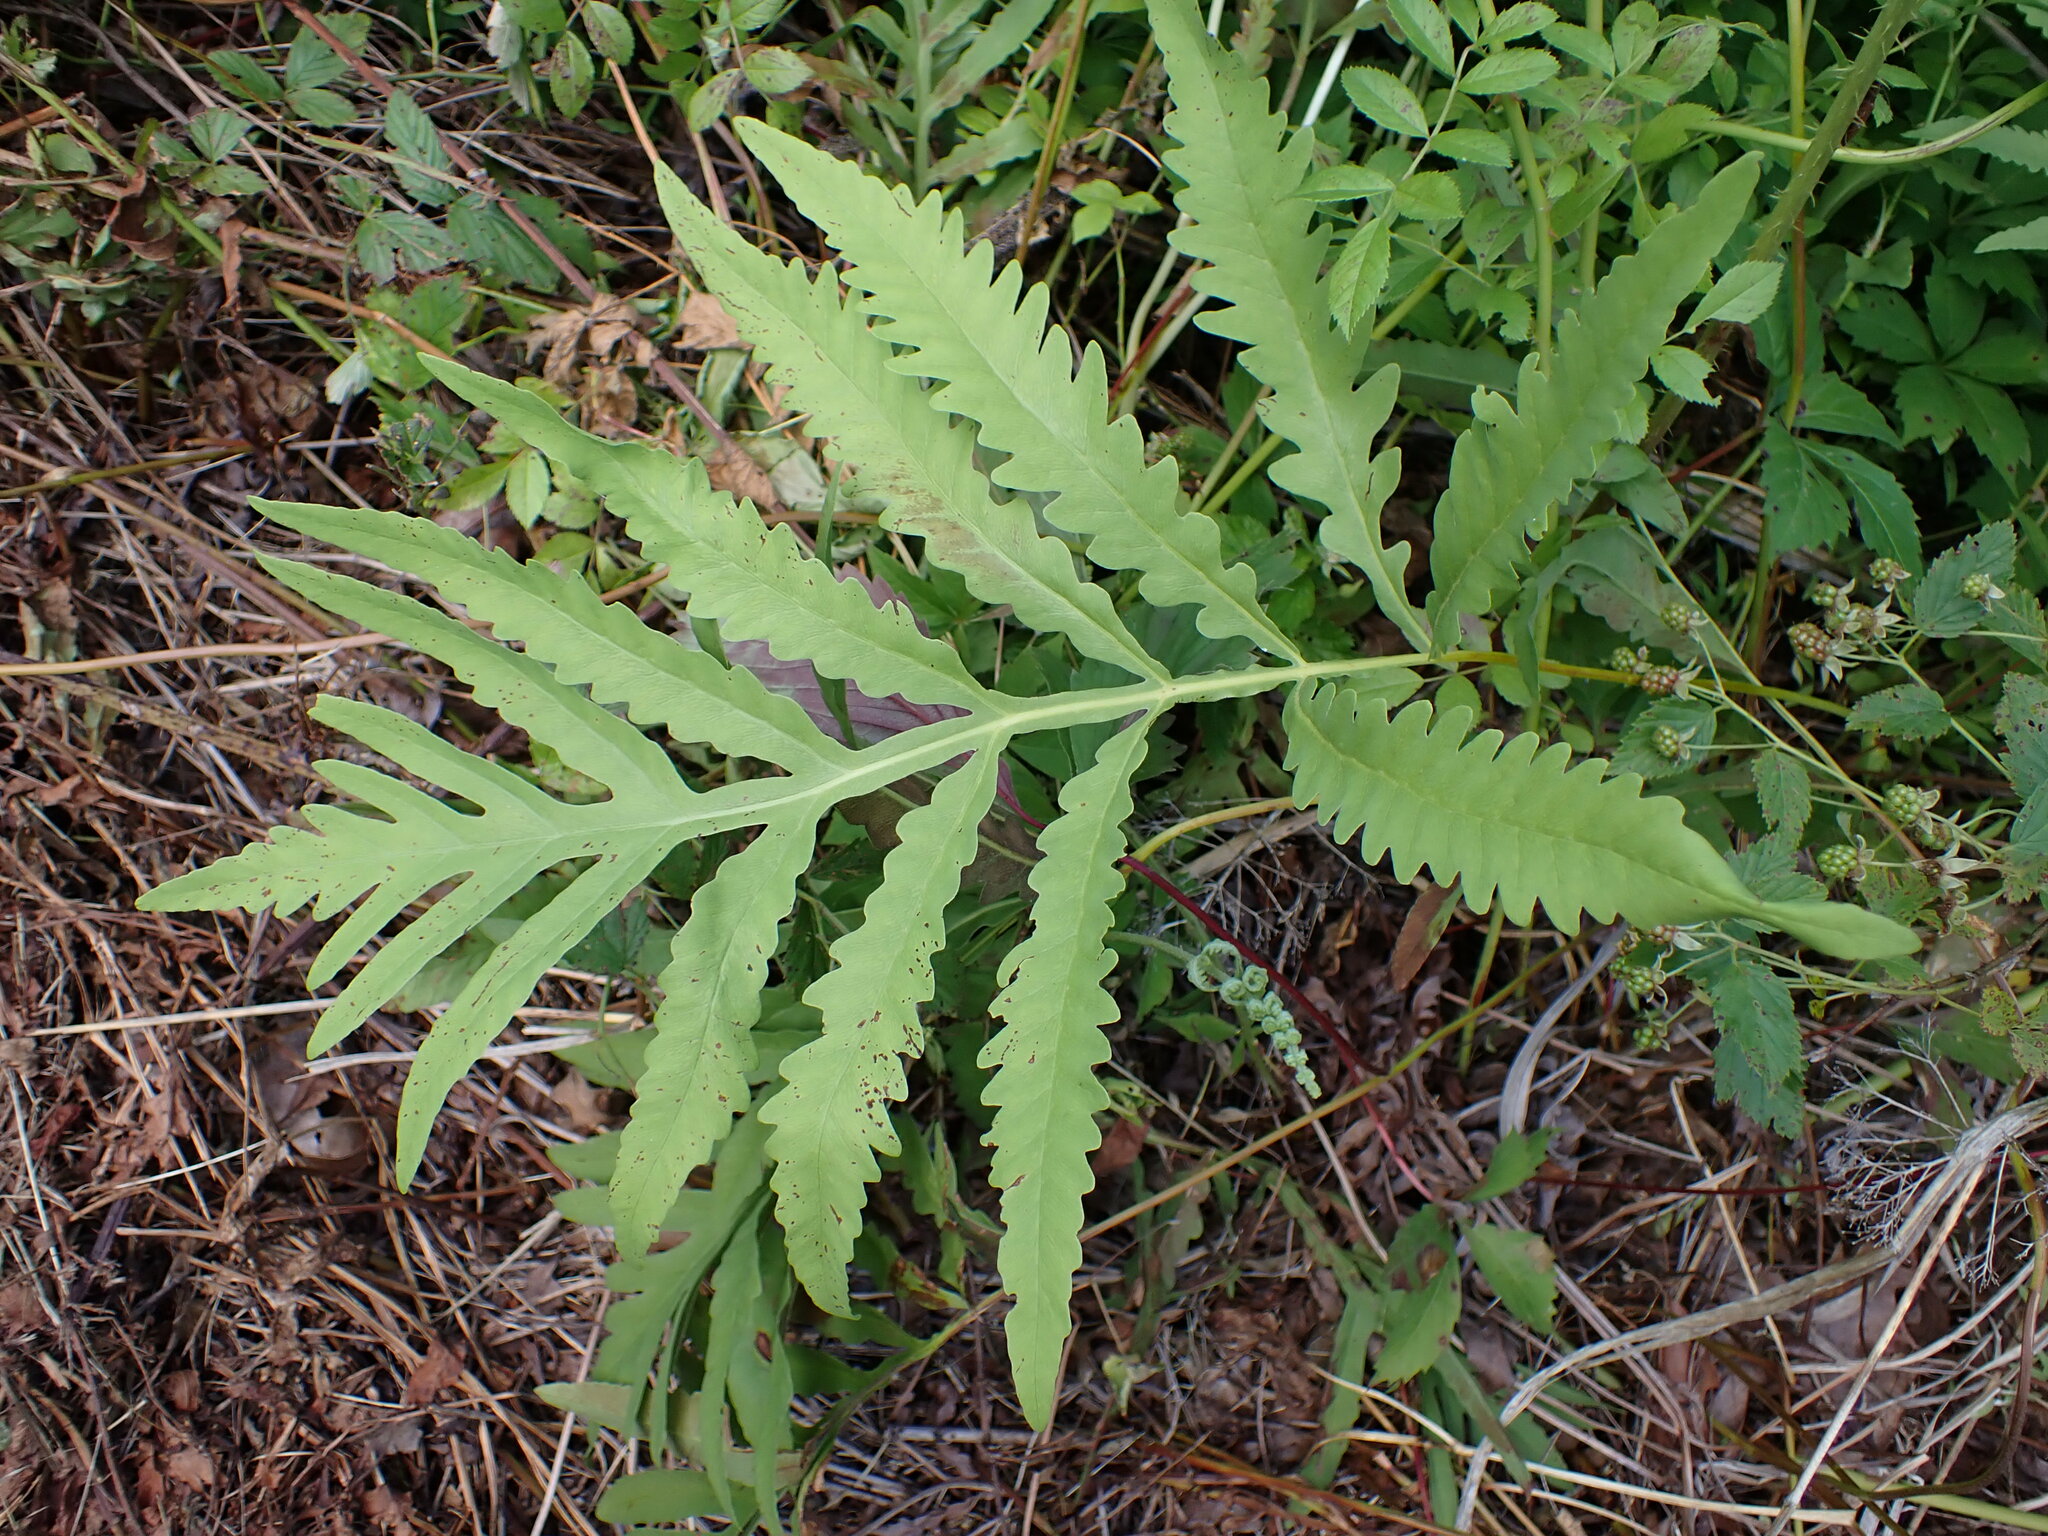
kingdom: Plantae
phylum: Tracheophyta
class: Polypodiopsida
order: Polypodiales
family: Onocleaceae
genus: Onoclea
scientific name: Onoclea sensibilis
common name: Sensitive fern
